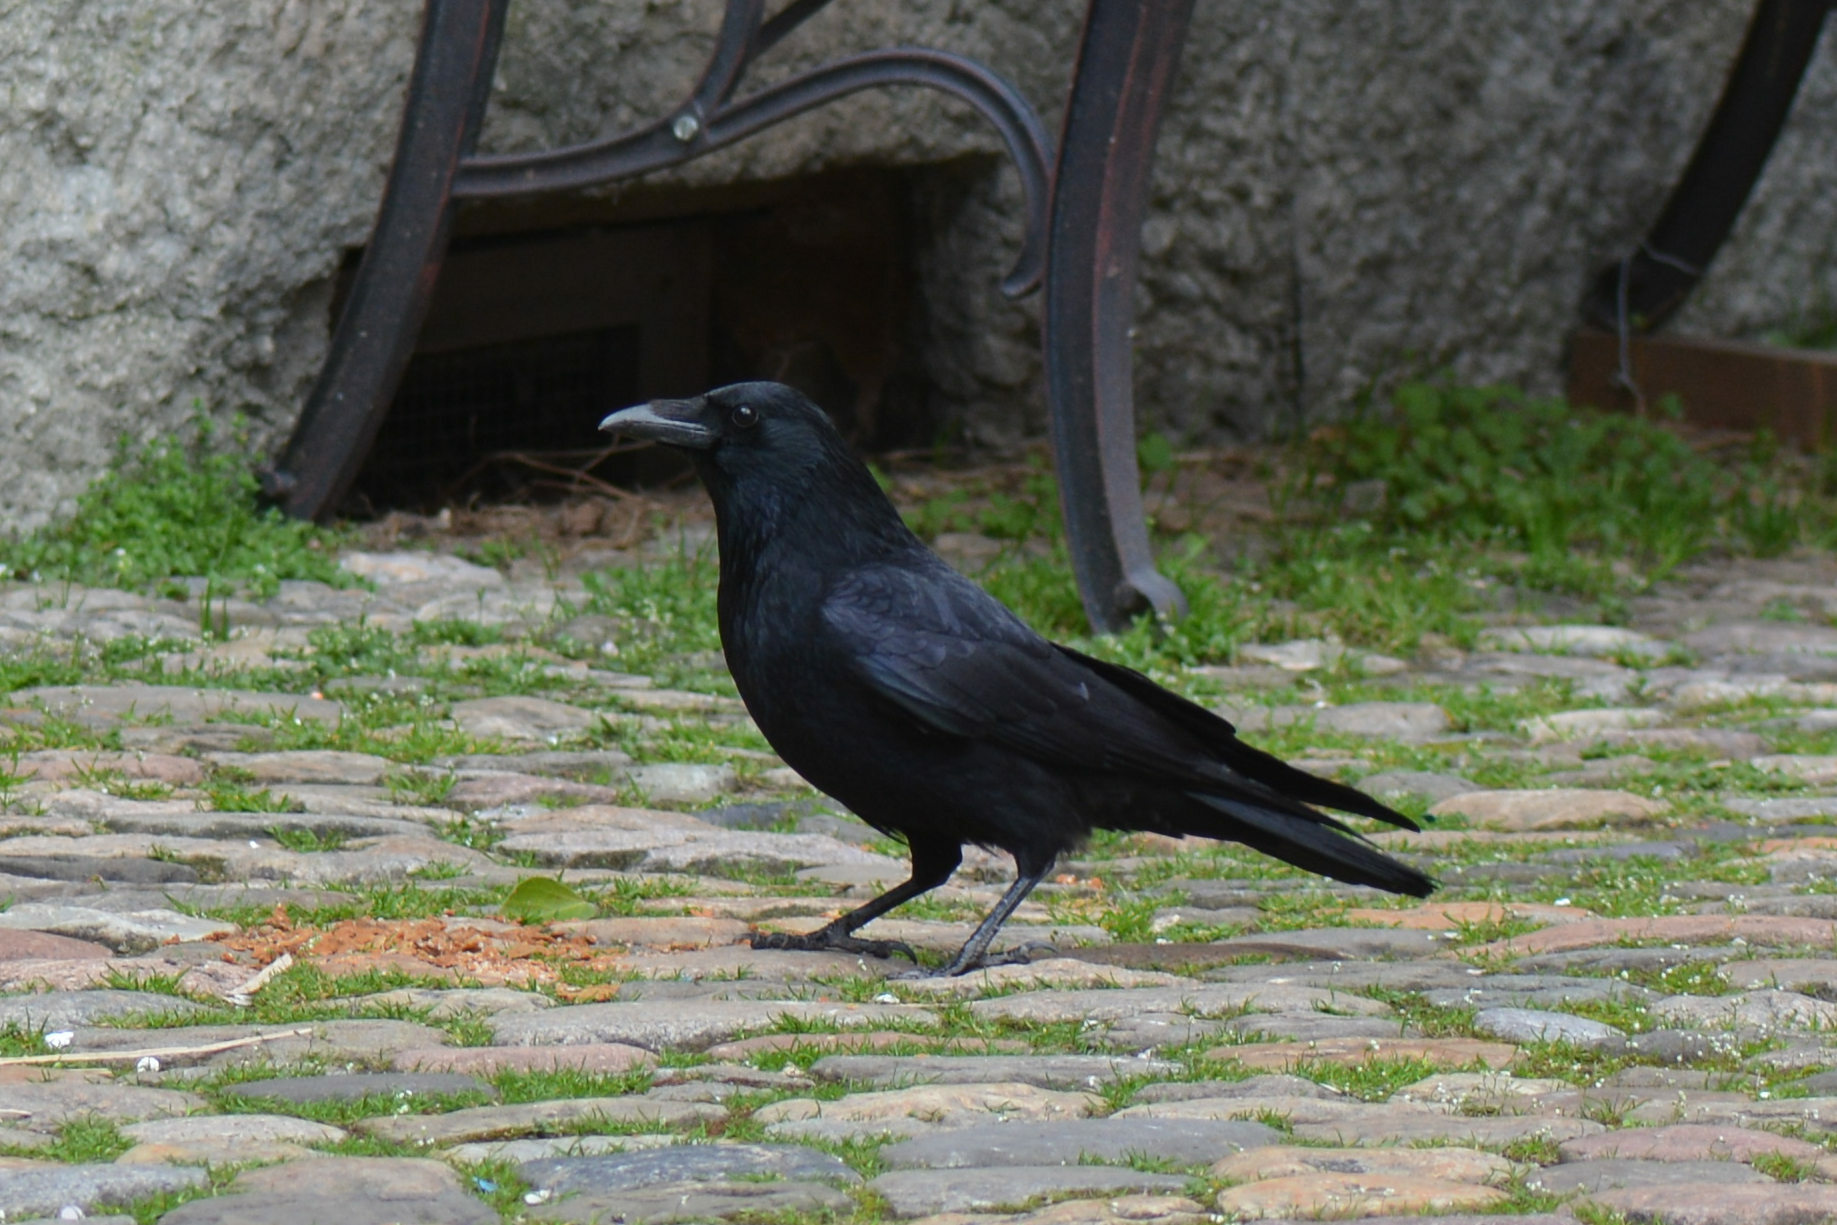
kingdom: Animalia
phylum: Chordata
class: Aves
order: Passeriformes
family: Corvidae
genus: Corvus
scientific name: Corvus corone
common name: Carrion crow
